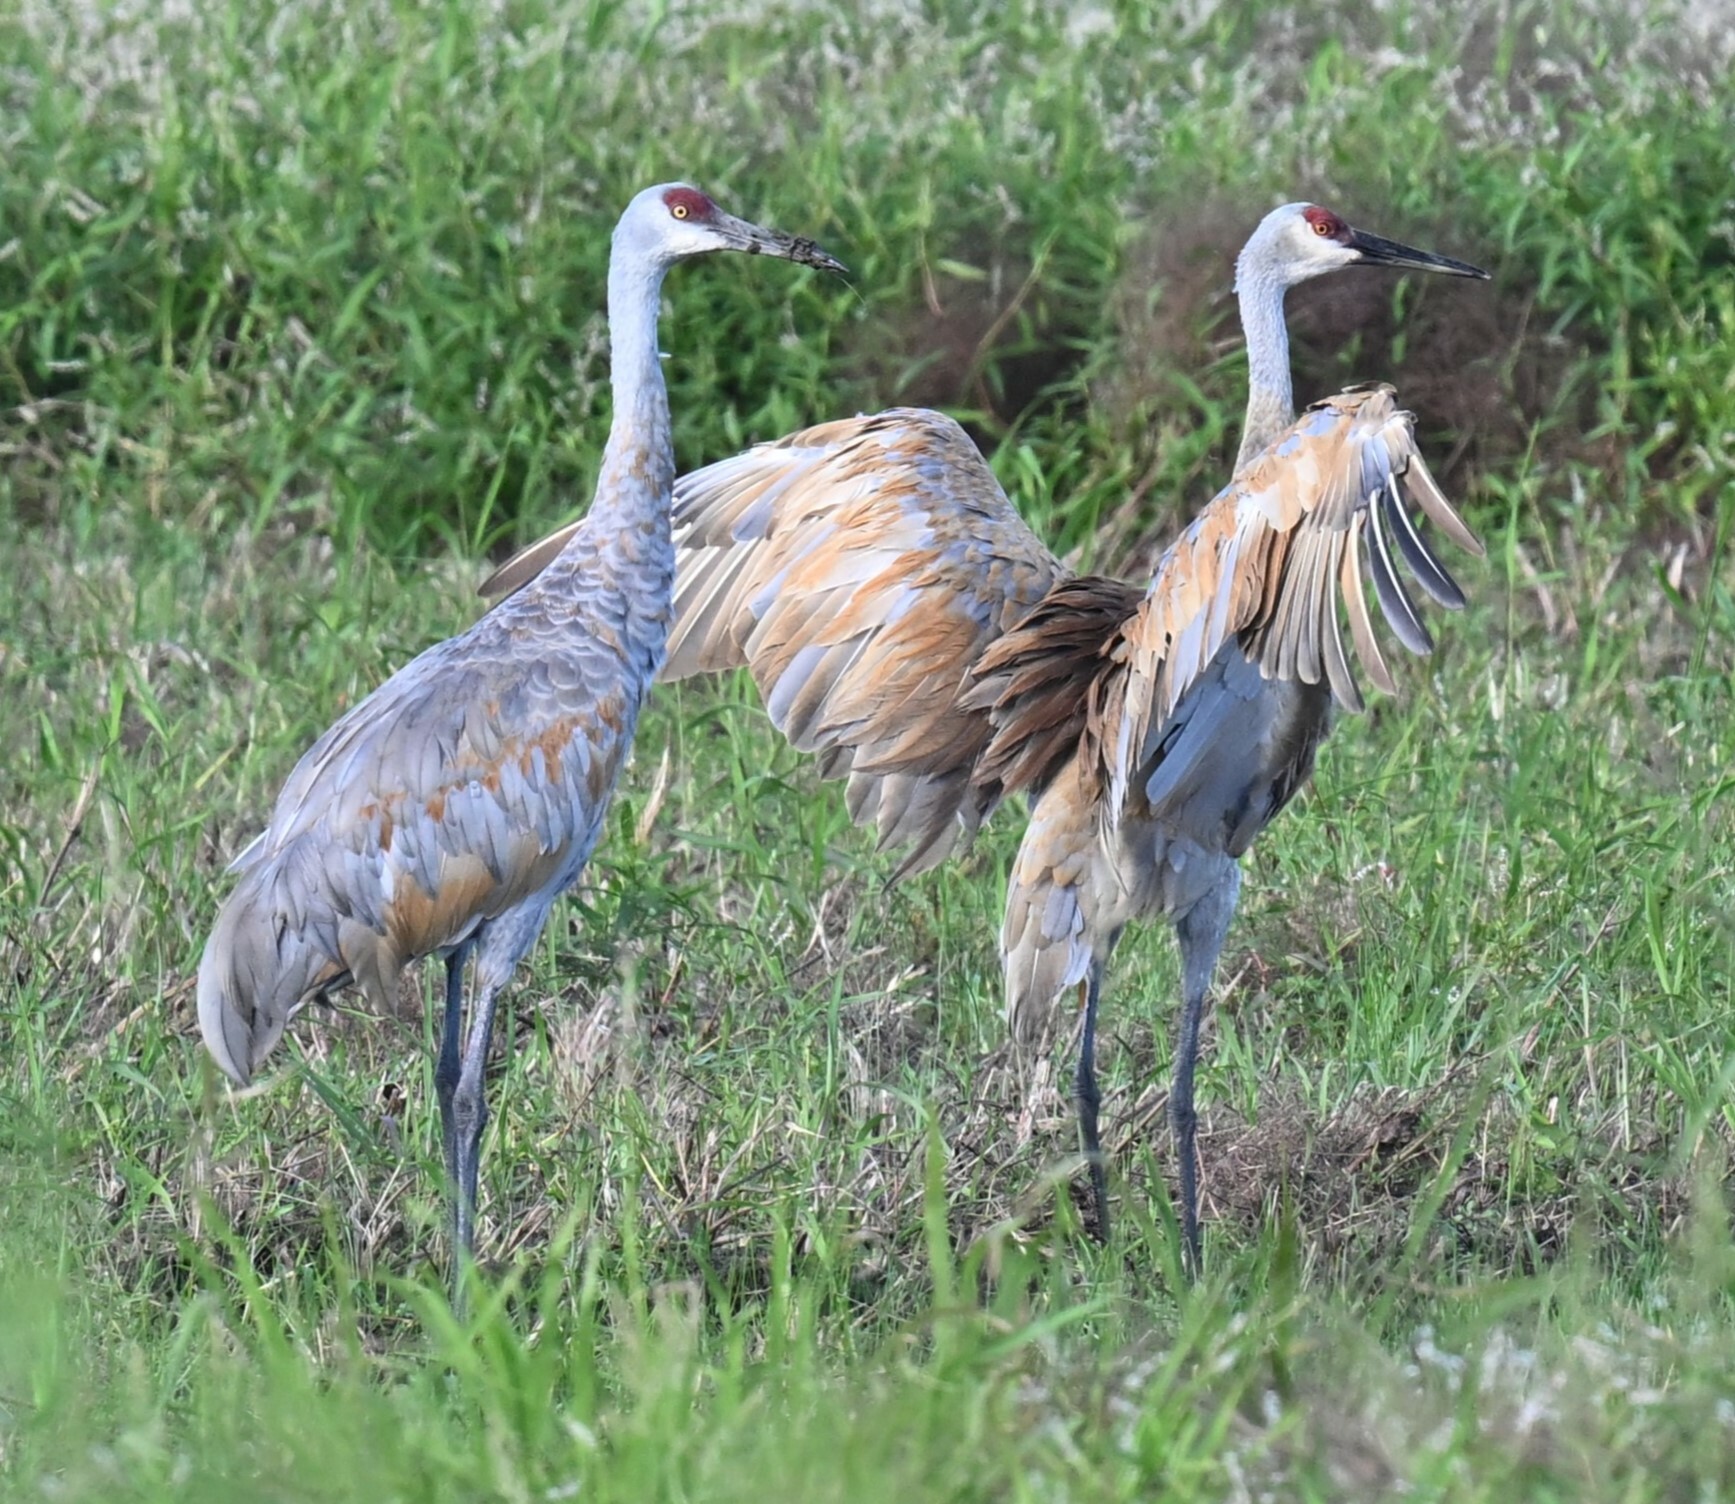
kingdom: Animalia
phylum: Chordata
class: Aves
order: Gruiformes
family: Gruidae
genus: Grus
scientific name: Grus canadensis
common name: Sandhill crane
